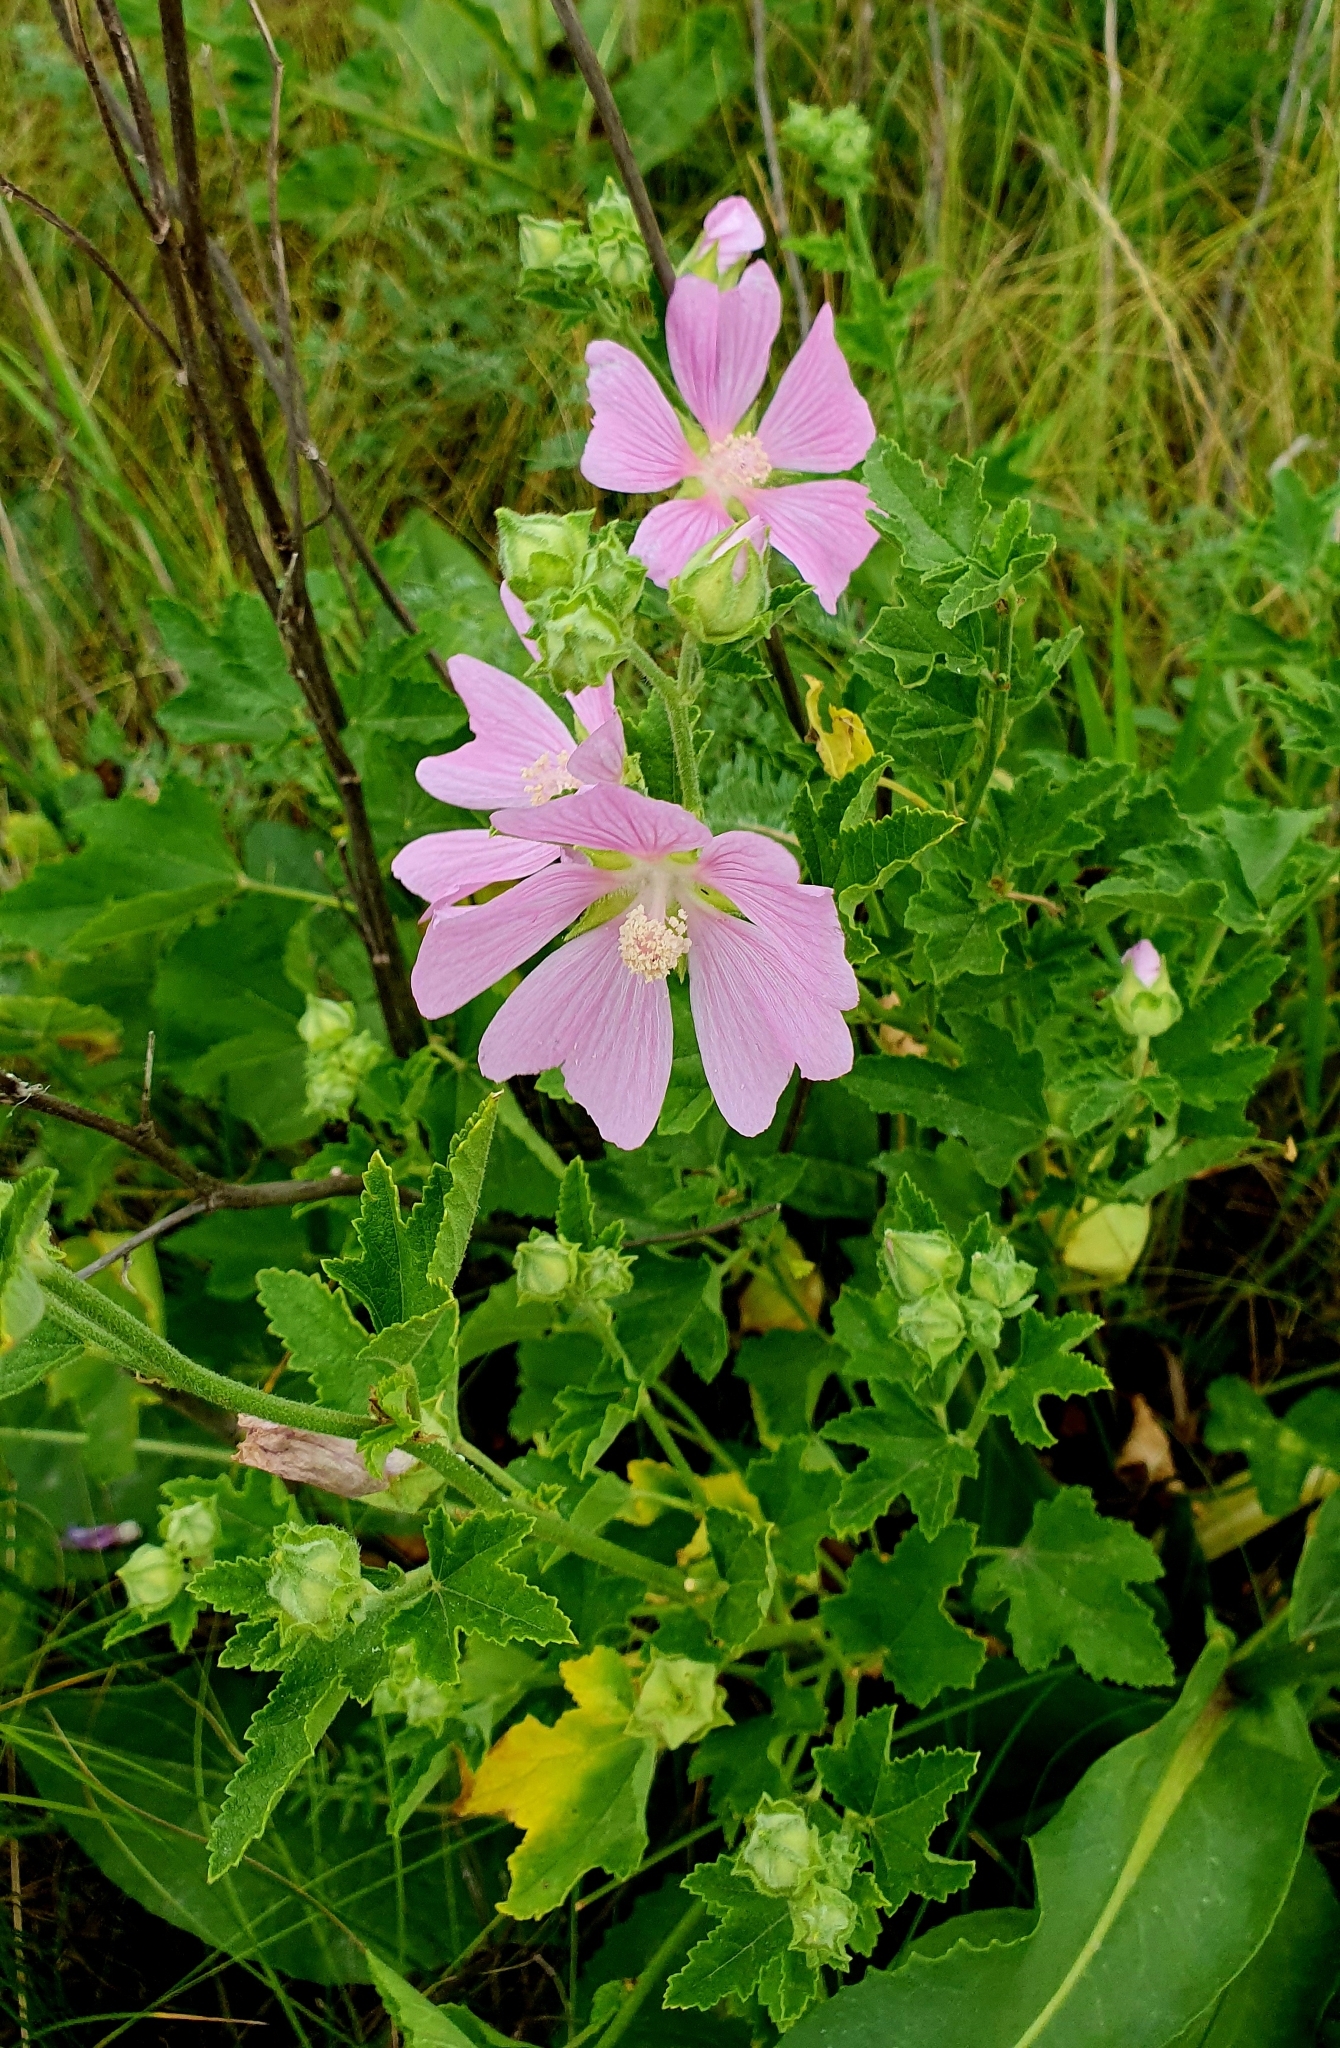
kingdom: Plantae
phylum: Tracheophyta
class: Magnoliopsida
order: Malvales
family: Malvaceae
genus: Malva
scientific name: Malva thuringiaca
